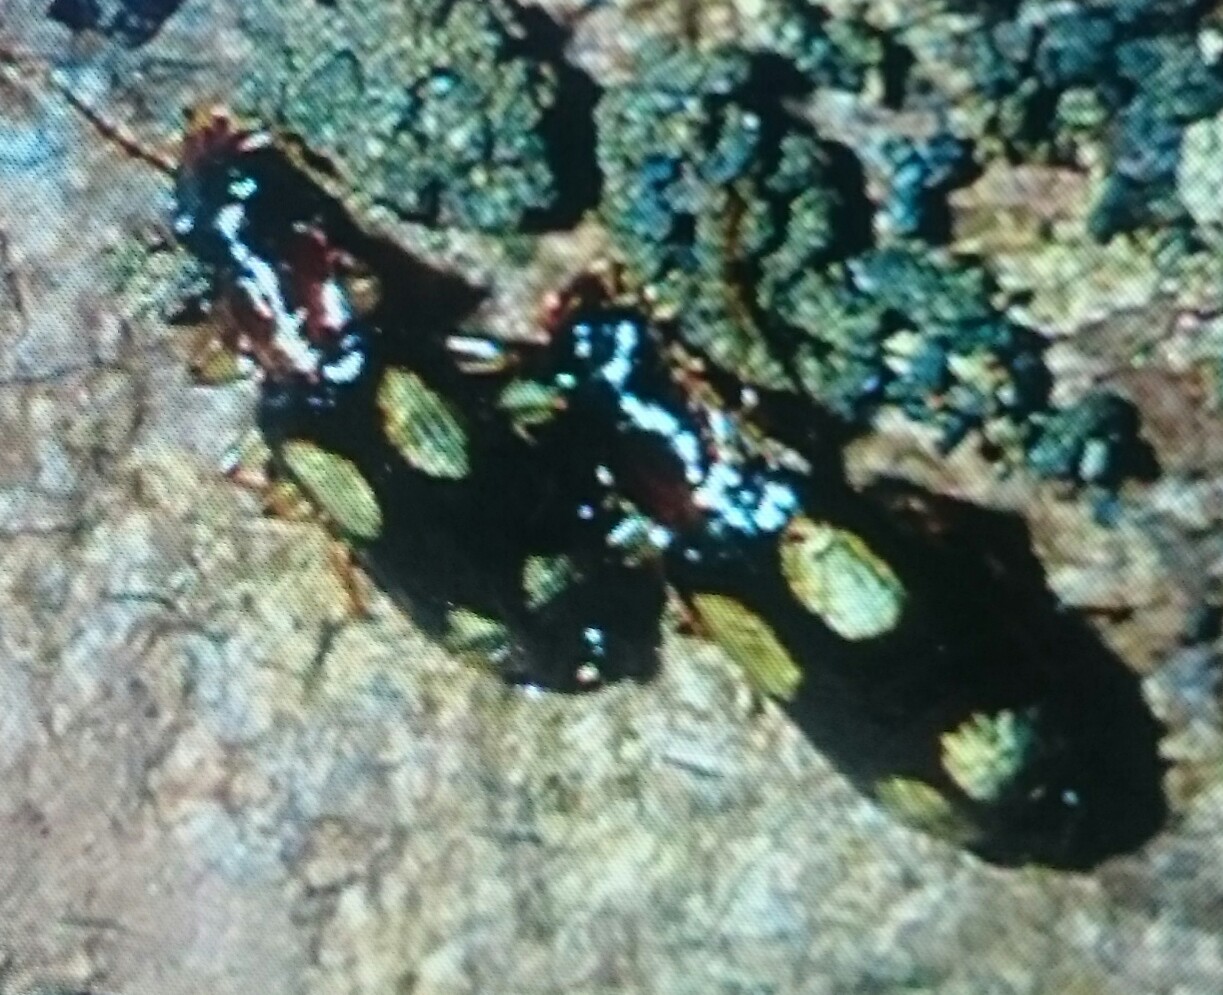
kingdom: Animalia
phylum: Arthropoda
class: Insecta
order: Coleoptera
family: Carabidae
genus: Dromius
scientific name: Dromius quadrimaculatus
